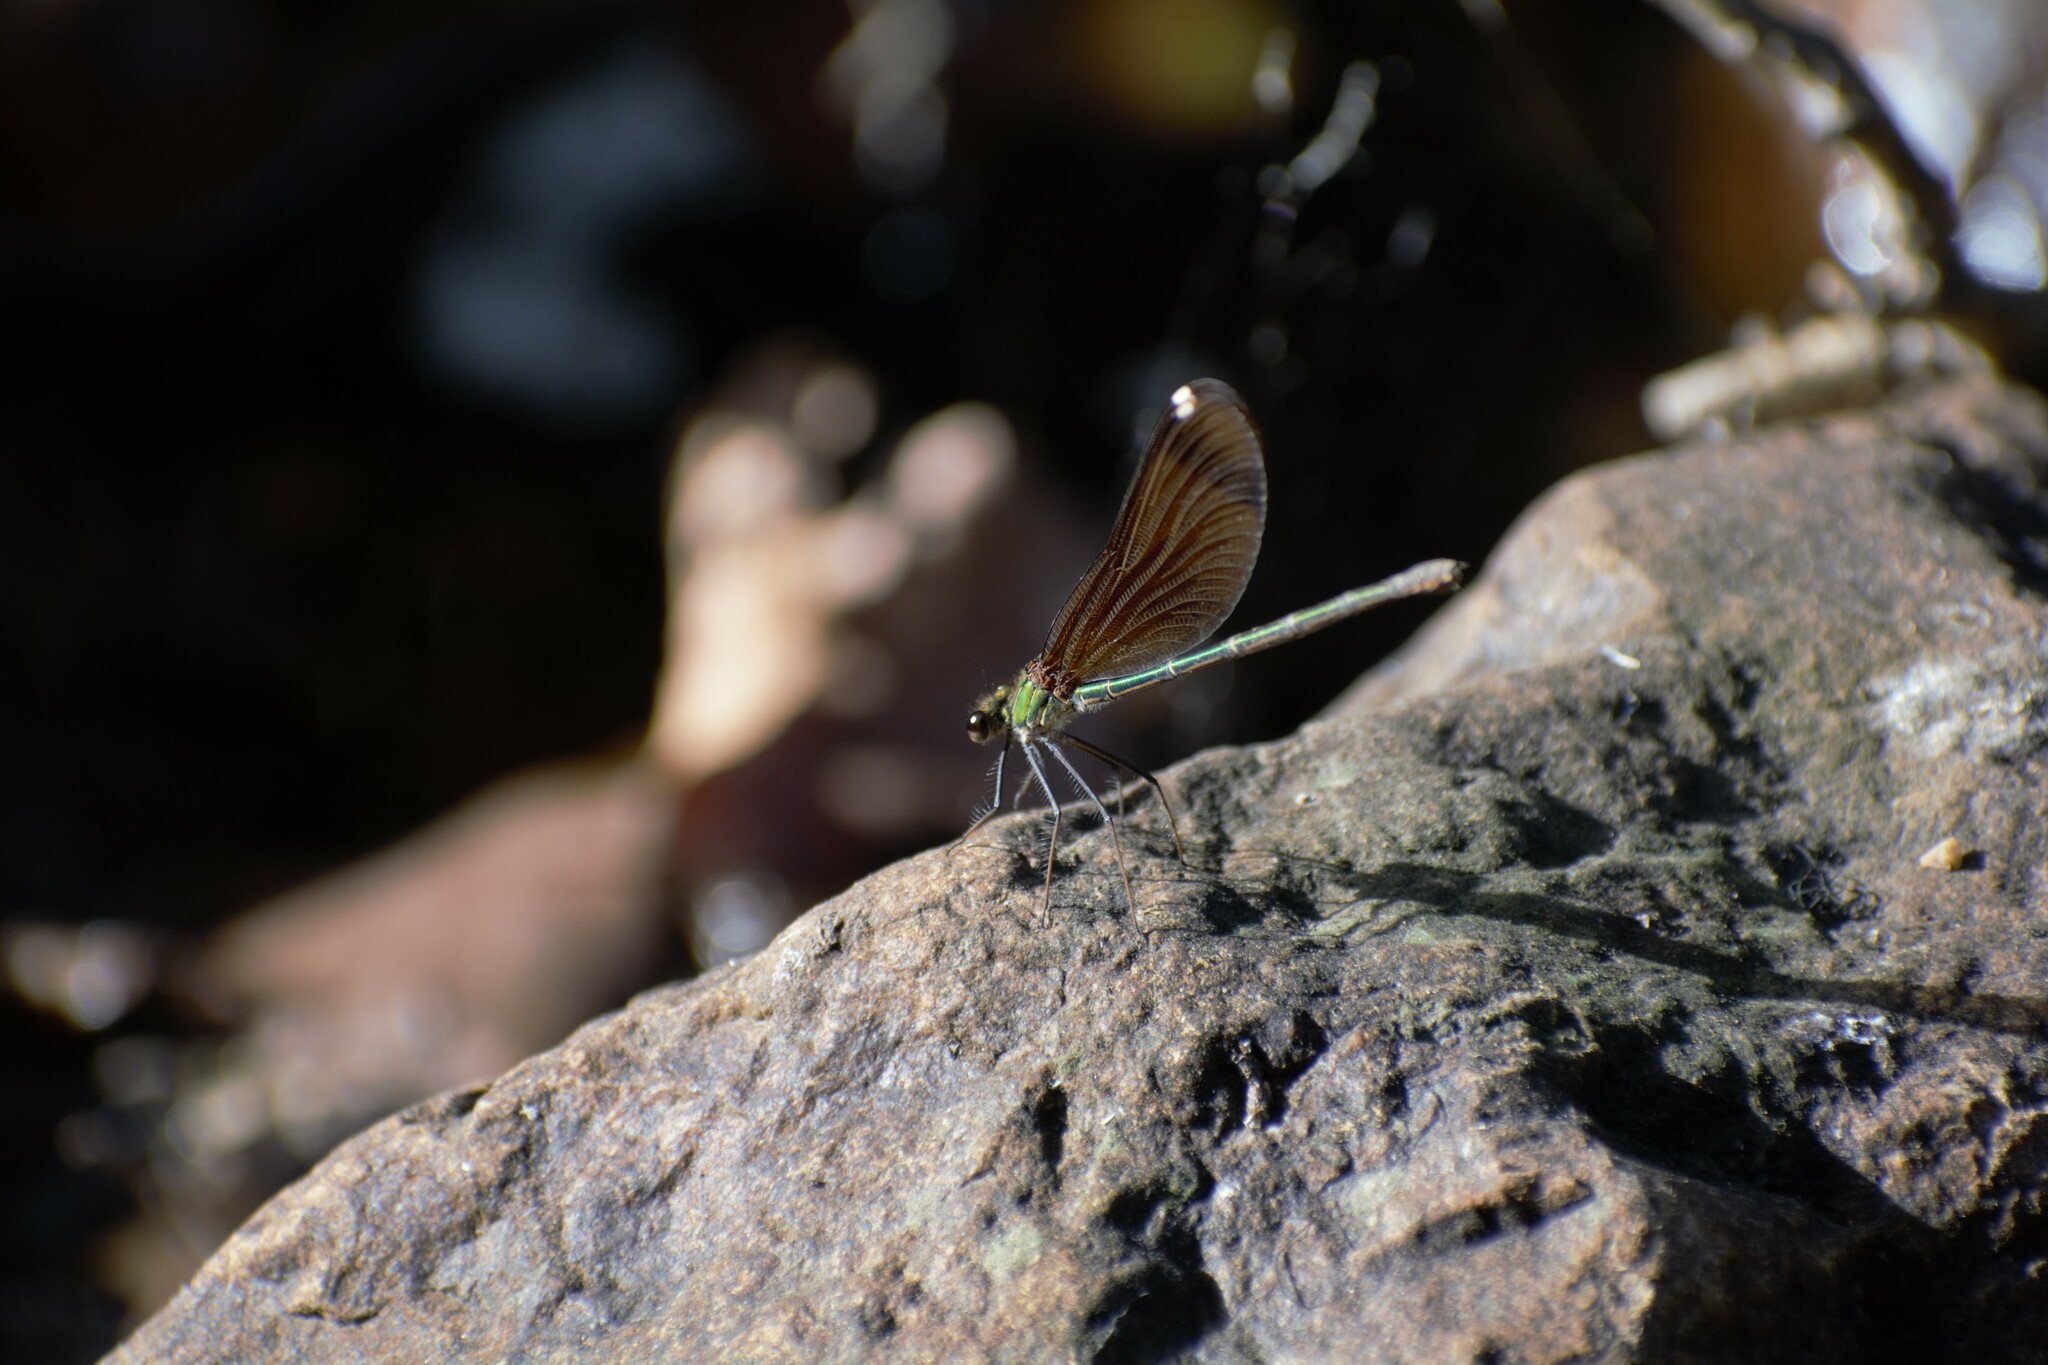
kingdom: Animalia
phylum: Arthropoda
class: Insecta
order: Odonata
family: Calopterygidae
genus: Calopteryx
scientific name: Calopteryx haemorrhoidalis
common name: Copper demoiselle
